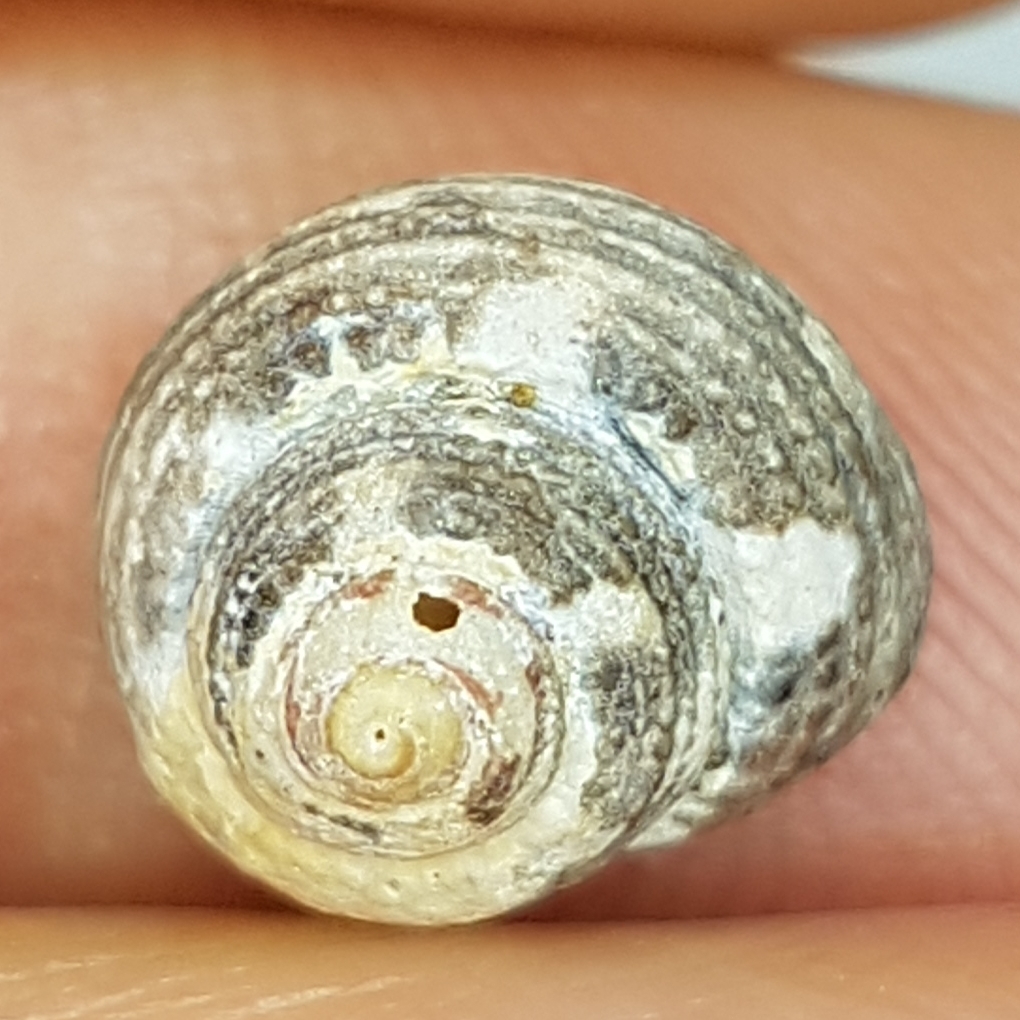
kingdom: Animalia
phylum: Mollusca
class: Gastropoda
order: Trochida
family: Trochidae
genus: Clanculus
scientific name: Clanculus cruciatus
